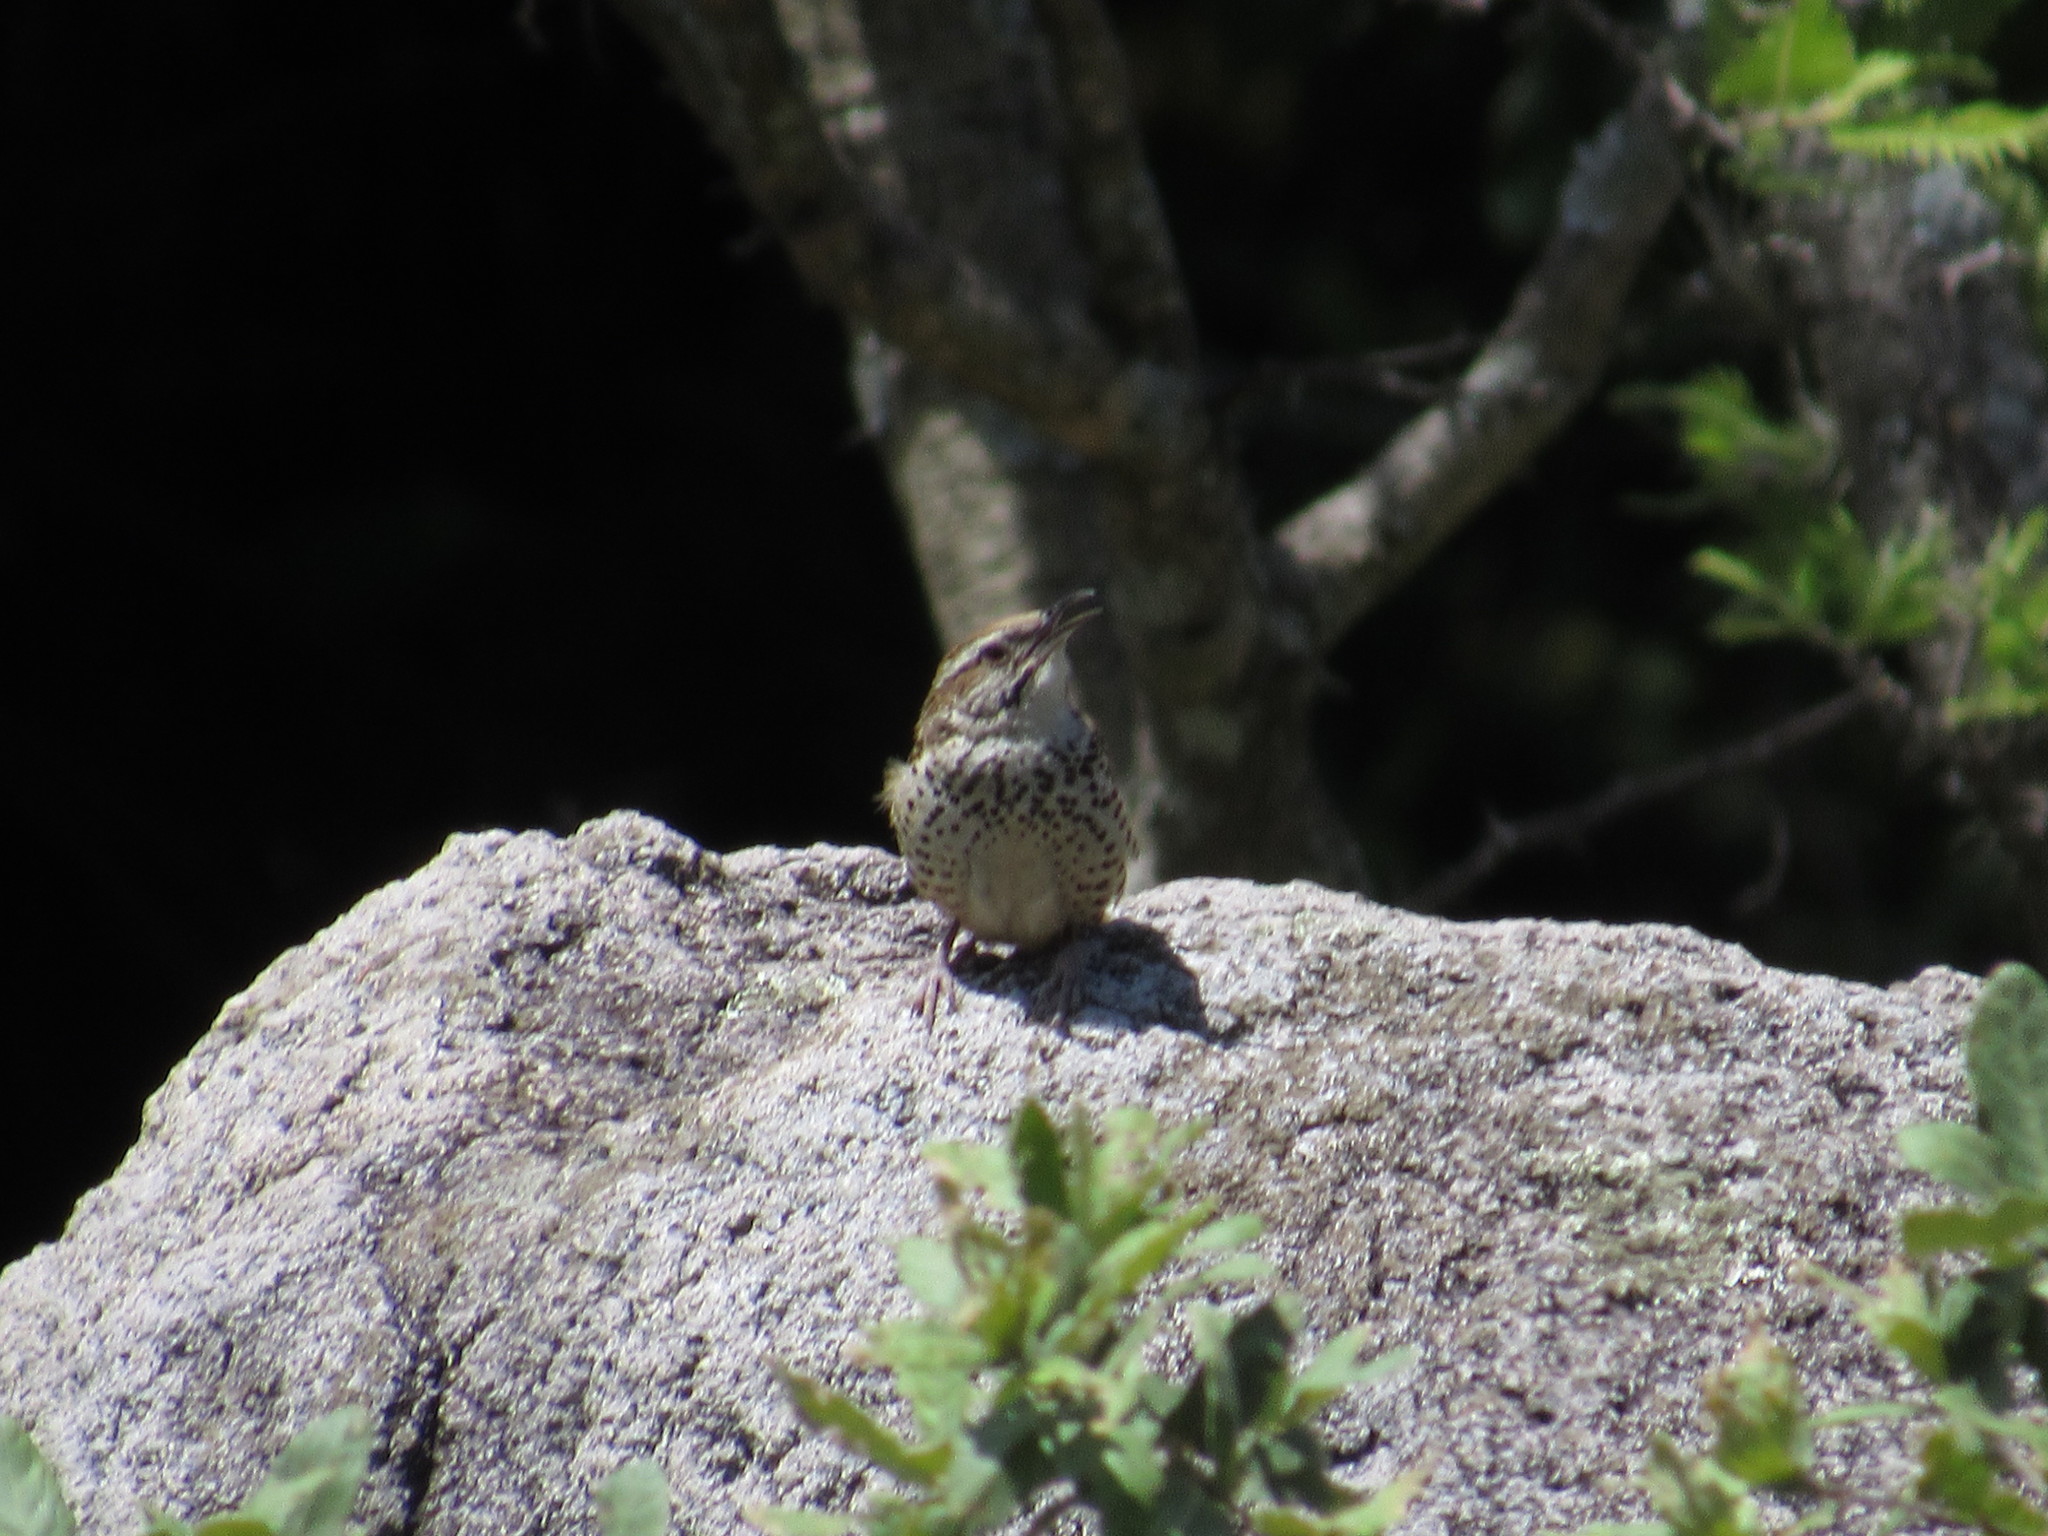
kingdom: Animalia
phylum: Chordata
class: Aves
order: Passeriformes
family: Troglodytidae
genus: Campylorhynchus
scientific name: Campylorhynchus gularis
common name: Spotted wren
